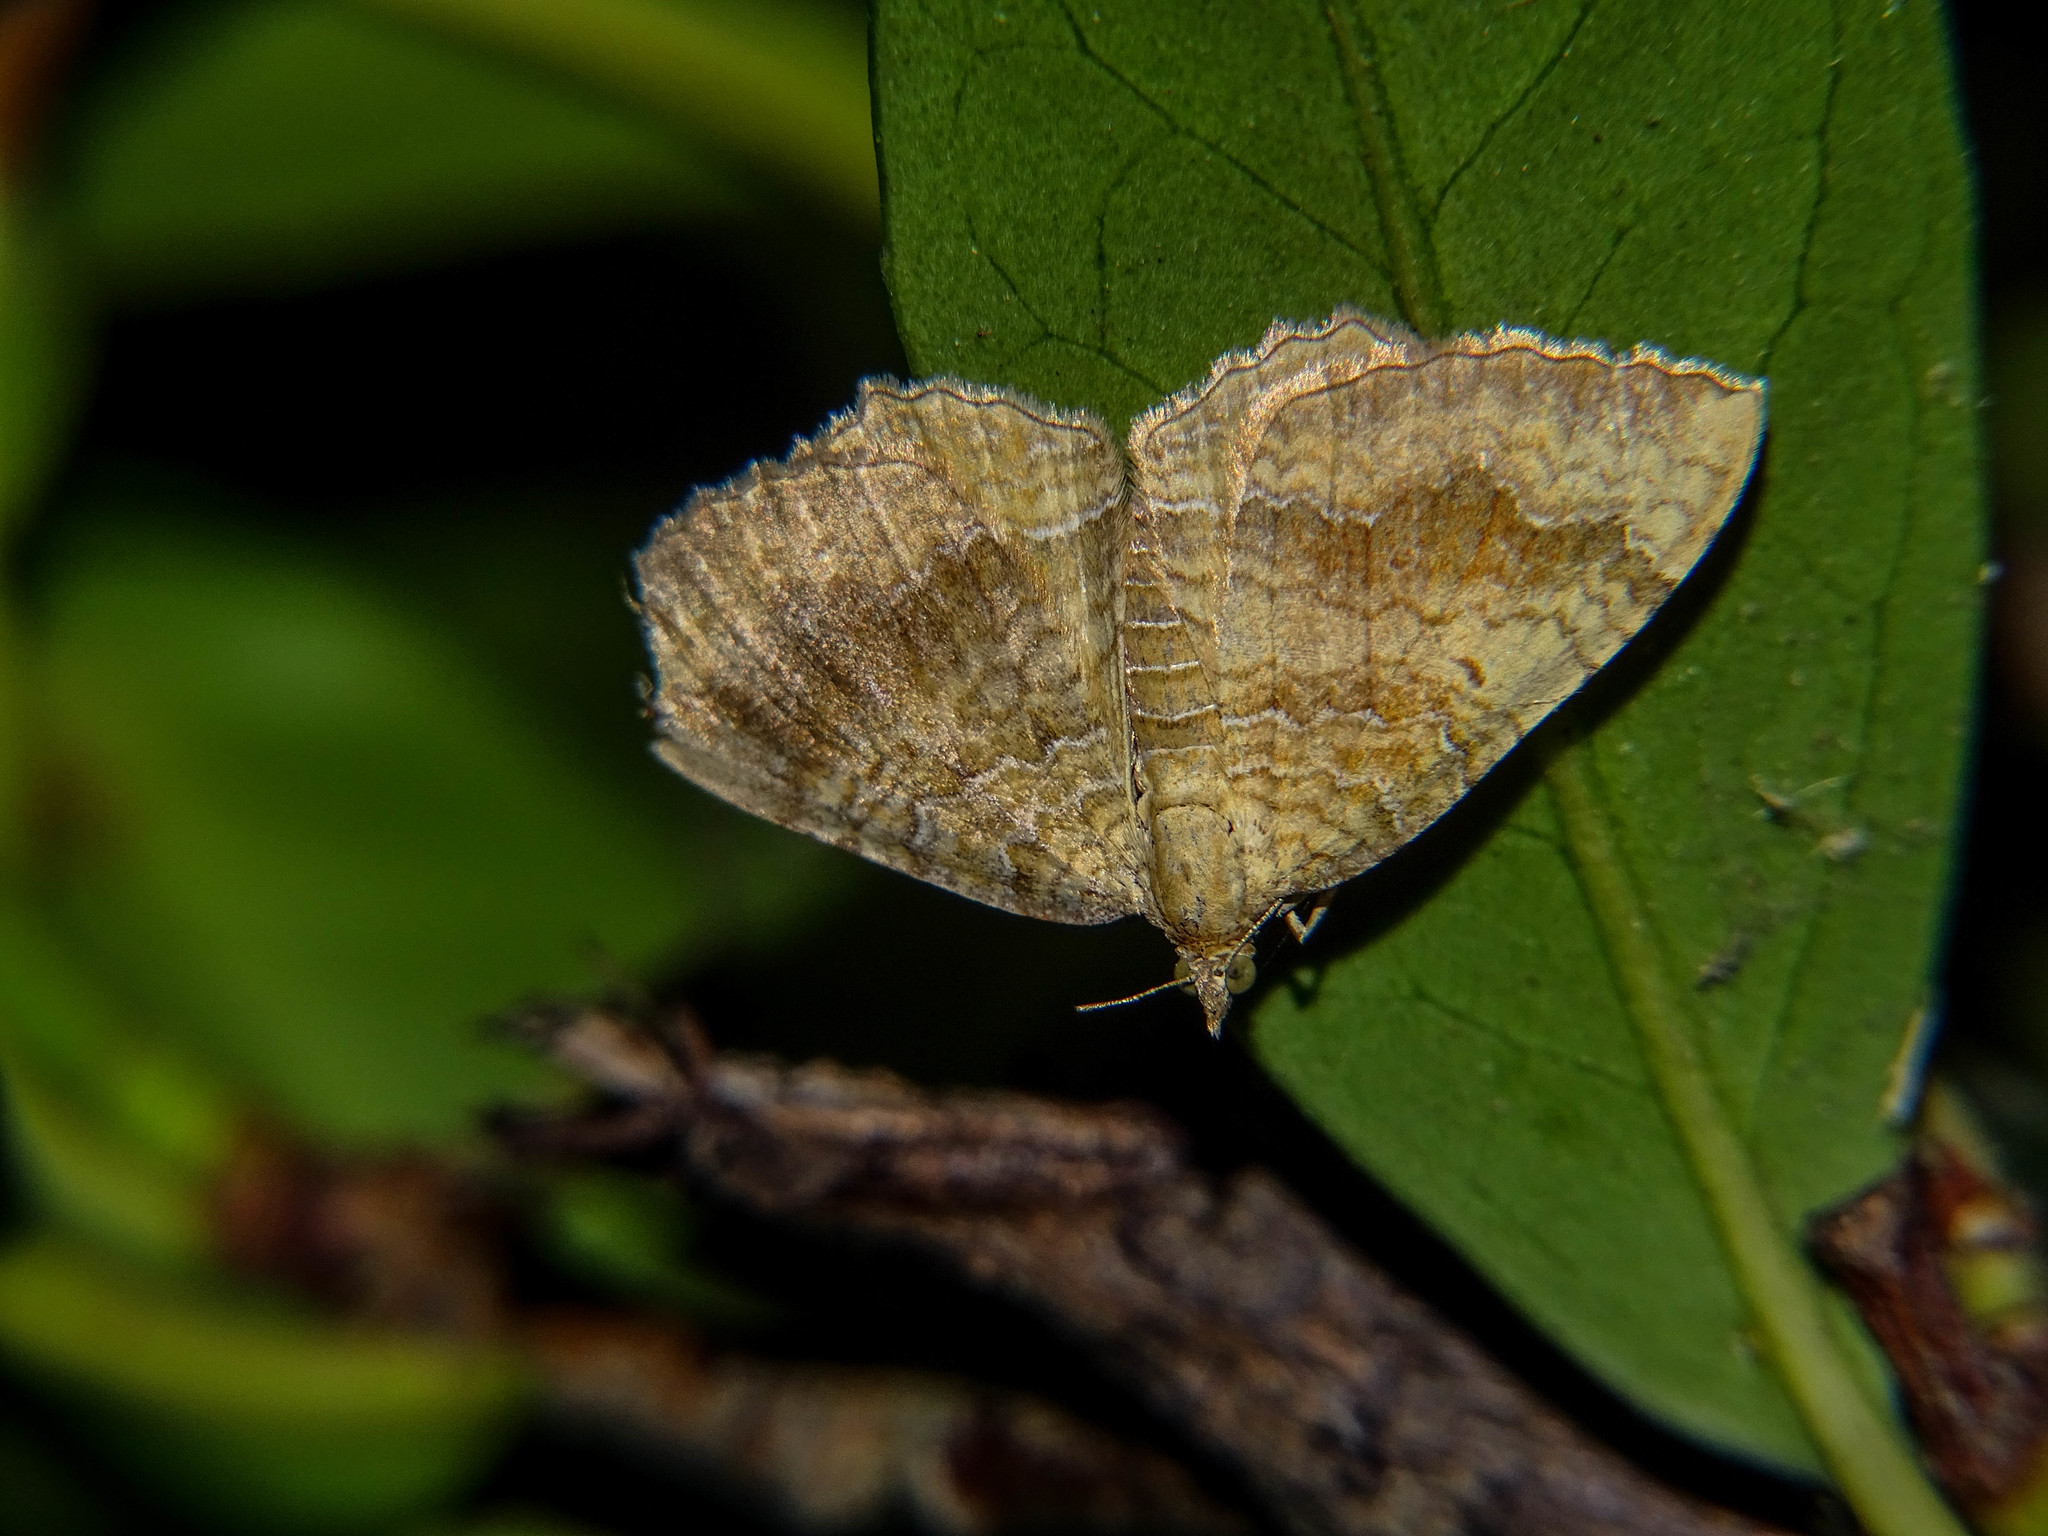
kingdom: Animalia
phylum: Arthropoda
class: Insecta
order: Lepidoptera
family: Geometridae
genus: Camptogramma
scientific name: Camptogramma bilineata
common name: Yellow shell
